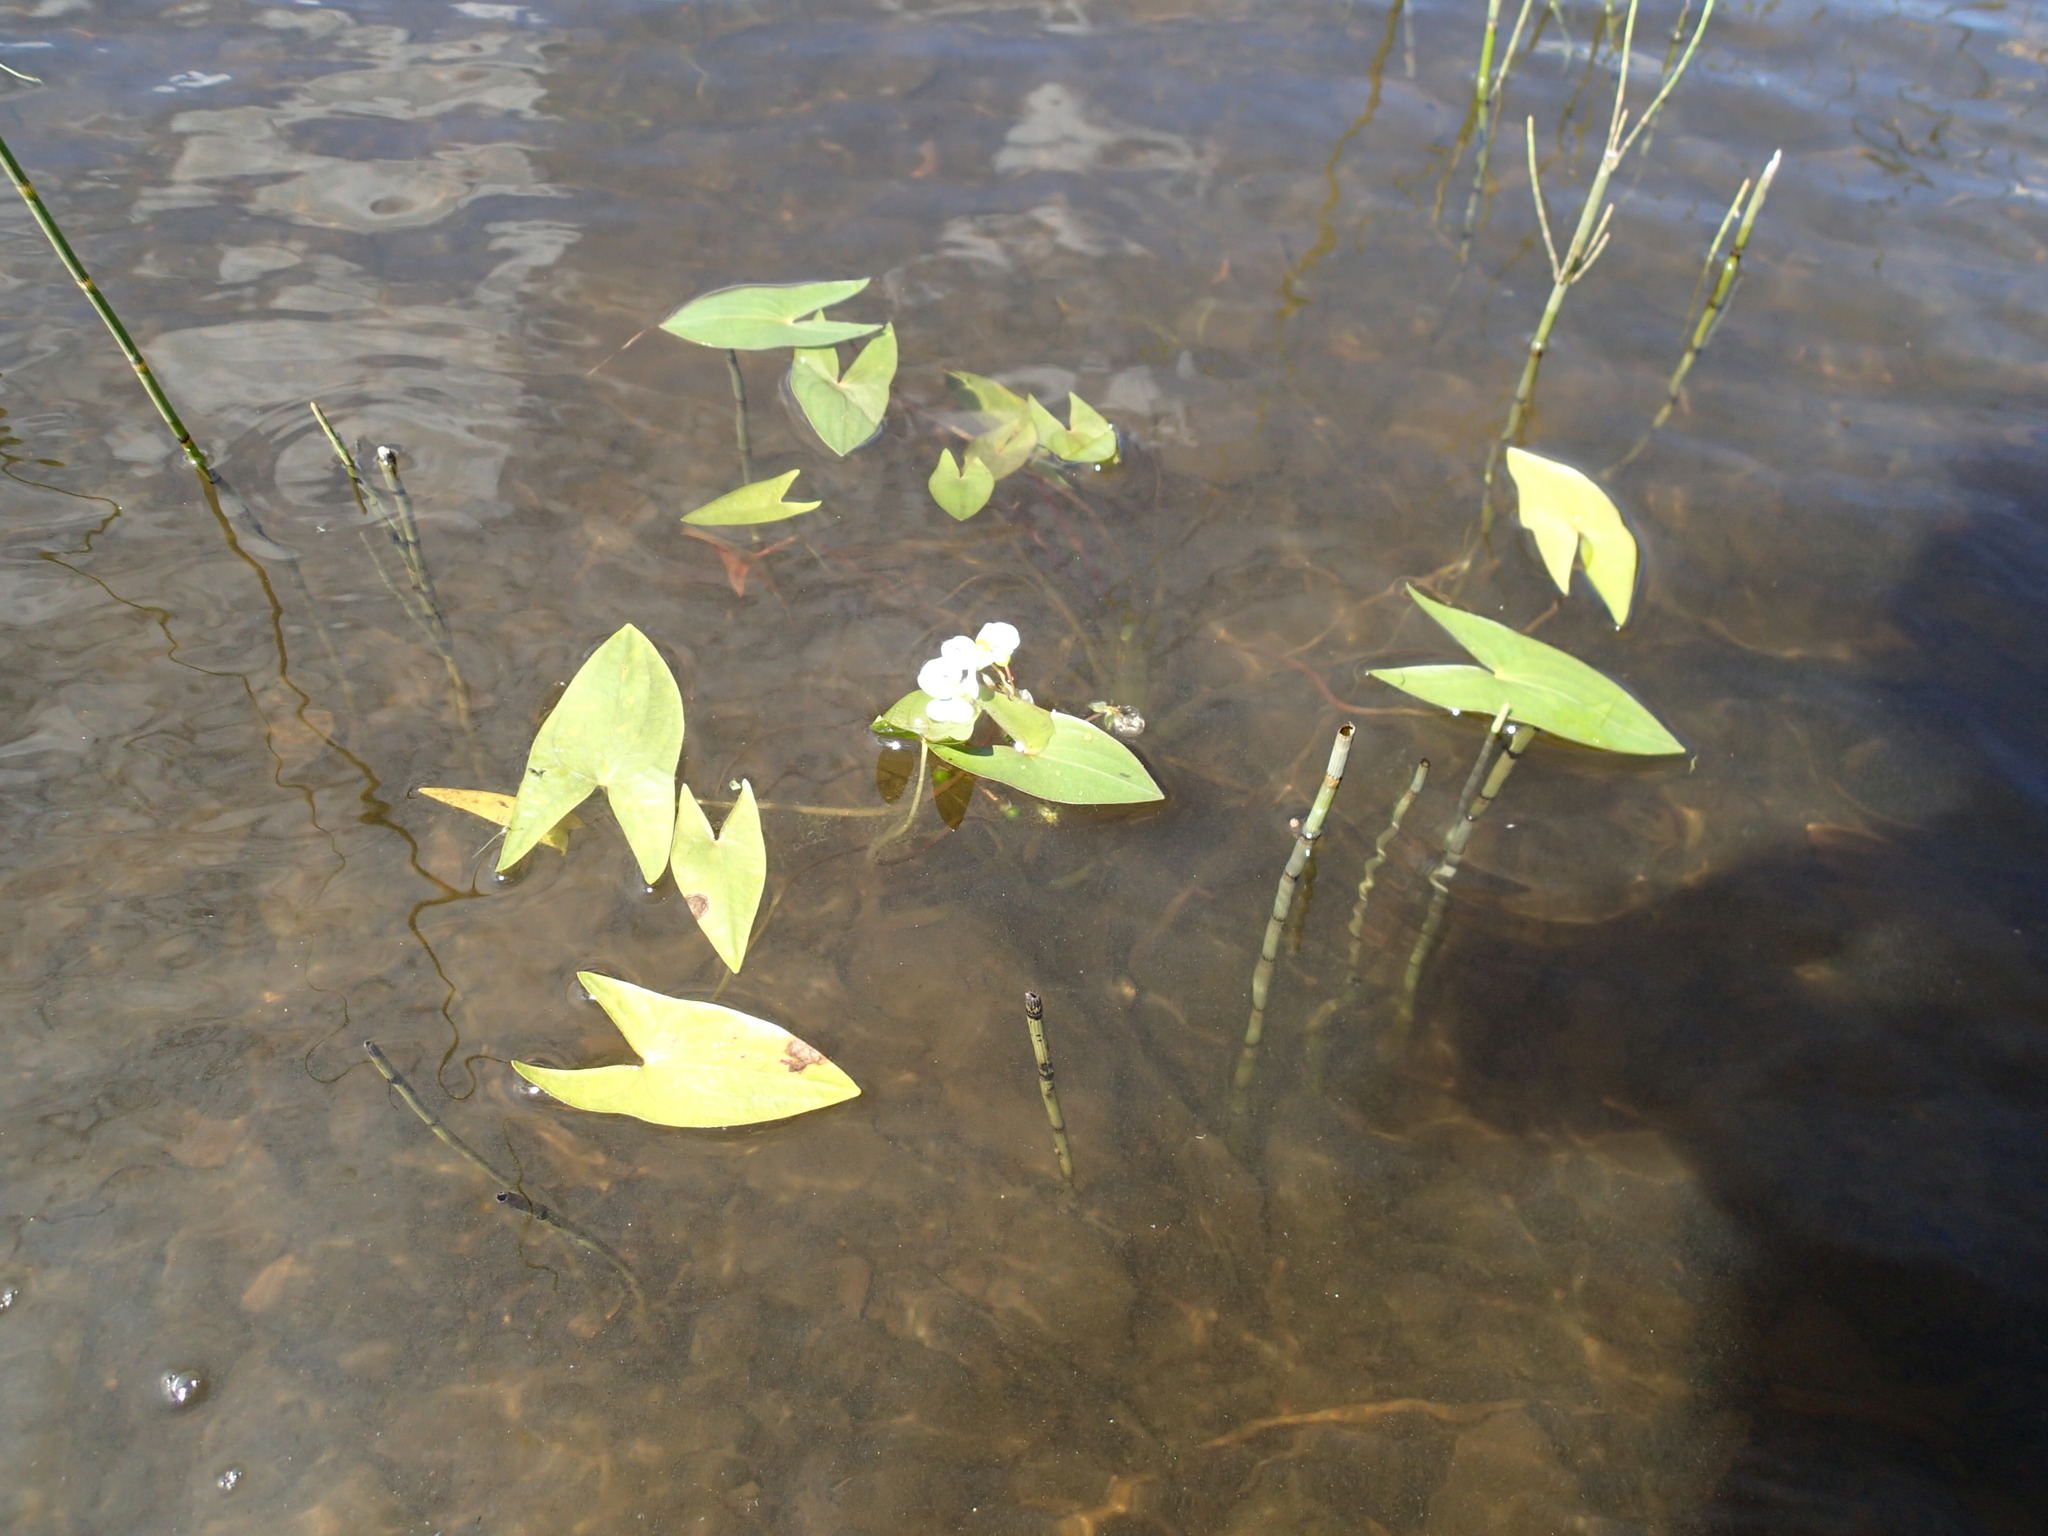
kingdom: Plantae
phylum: Tracheophyta
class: Liliopsida
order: Alismatales
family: Alismataceae
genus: Sagittaria
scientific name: Sagittaria cuneata
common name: Northern arrowhead
